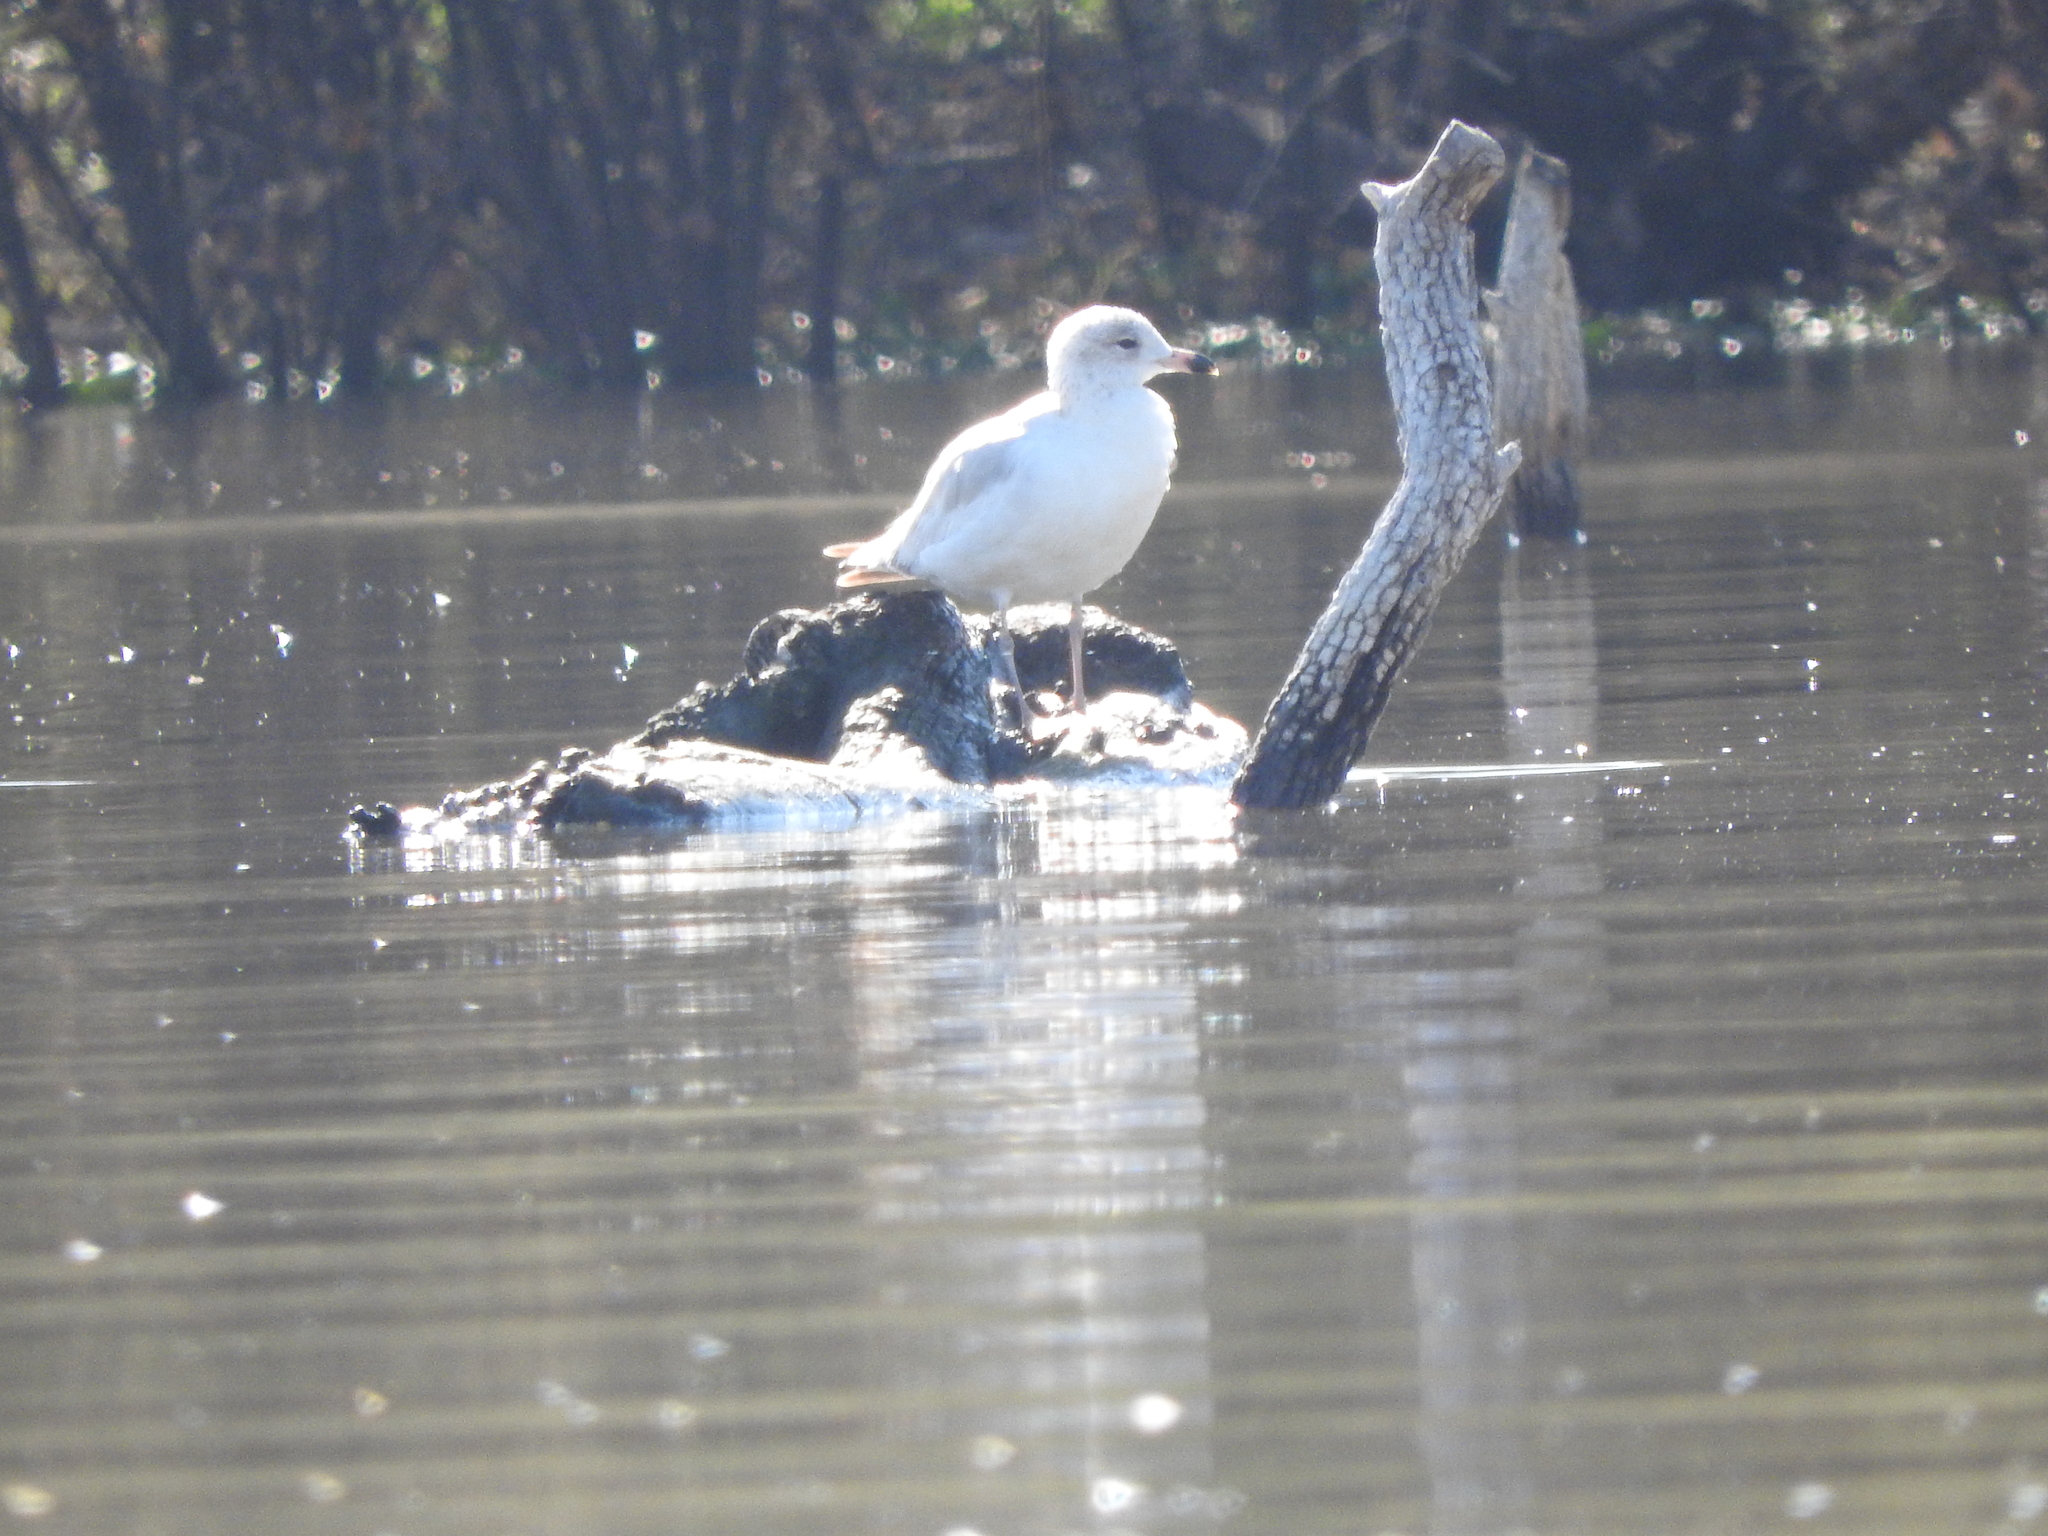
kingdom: Animalia
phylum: Chordata
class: Aves
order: Charadriiformes
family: Laridae
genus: Larus
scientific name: Larus delawarensis
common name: Ring-billed gull
